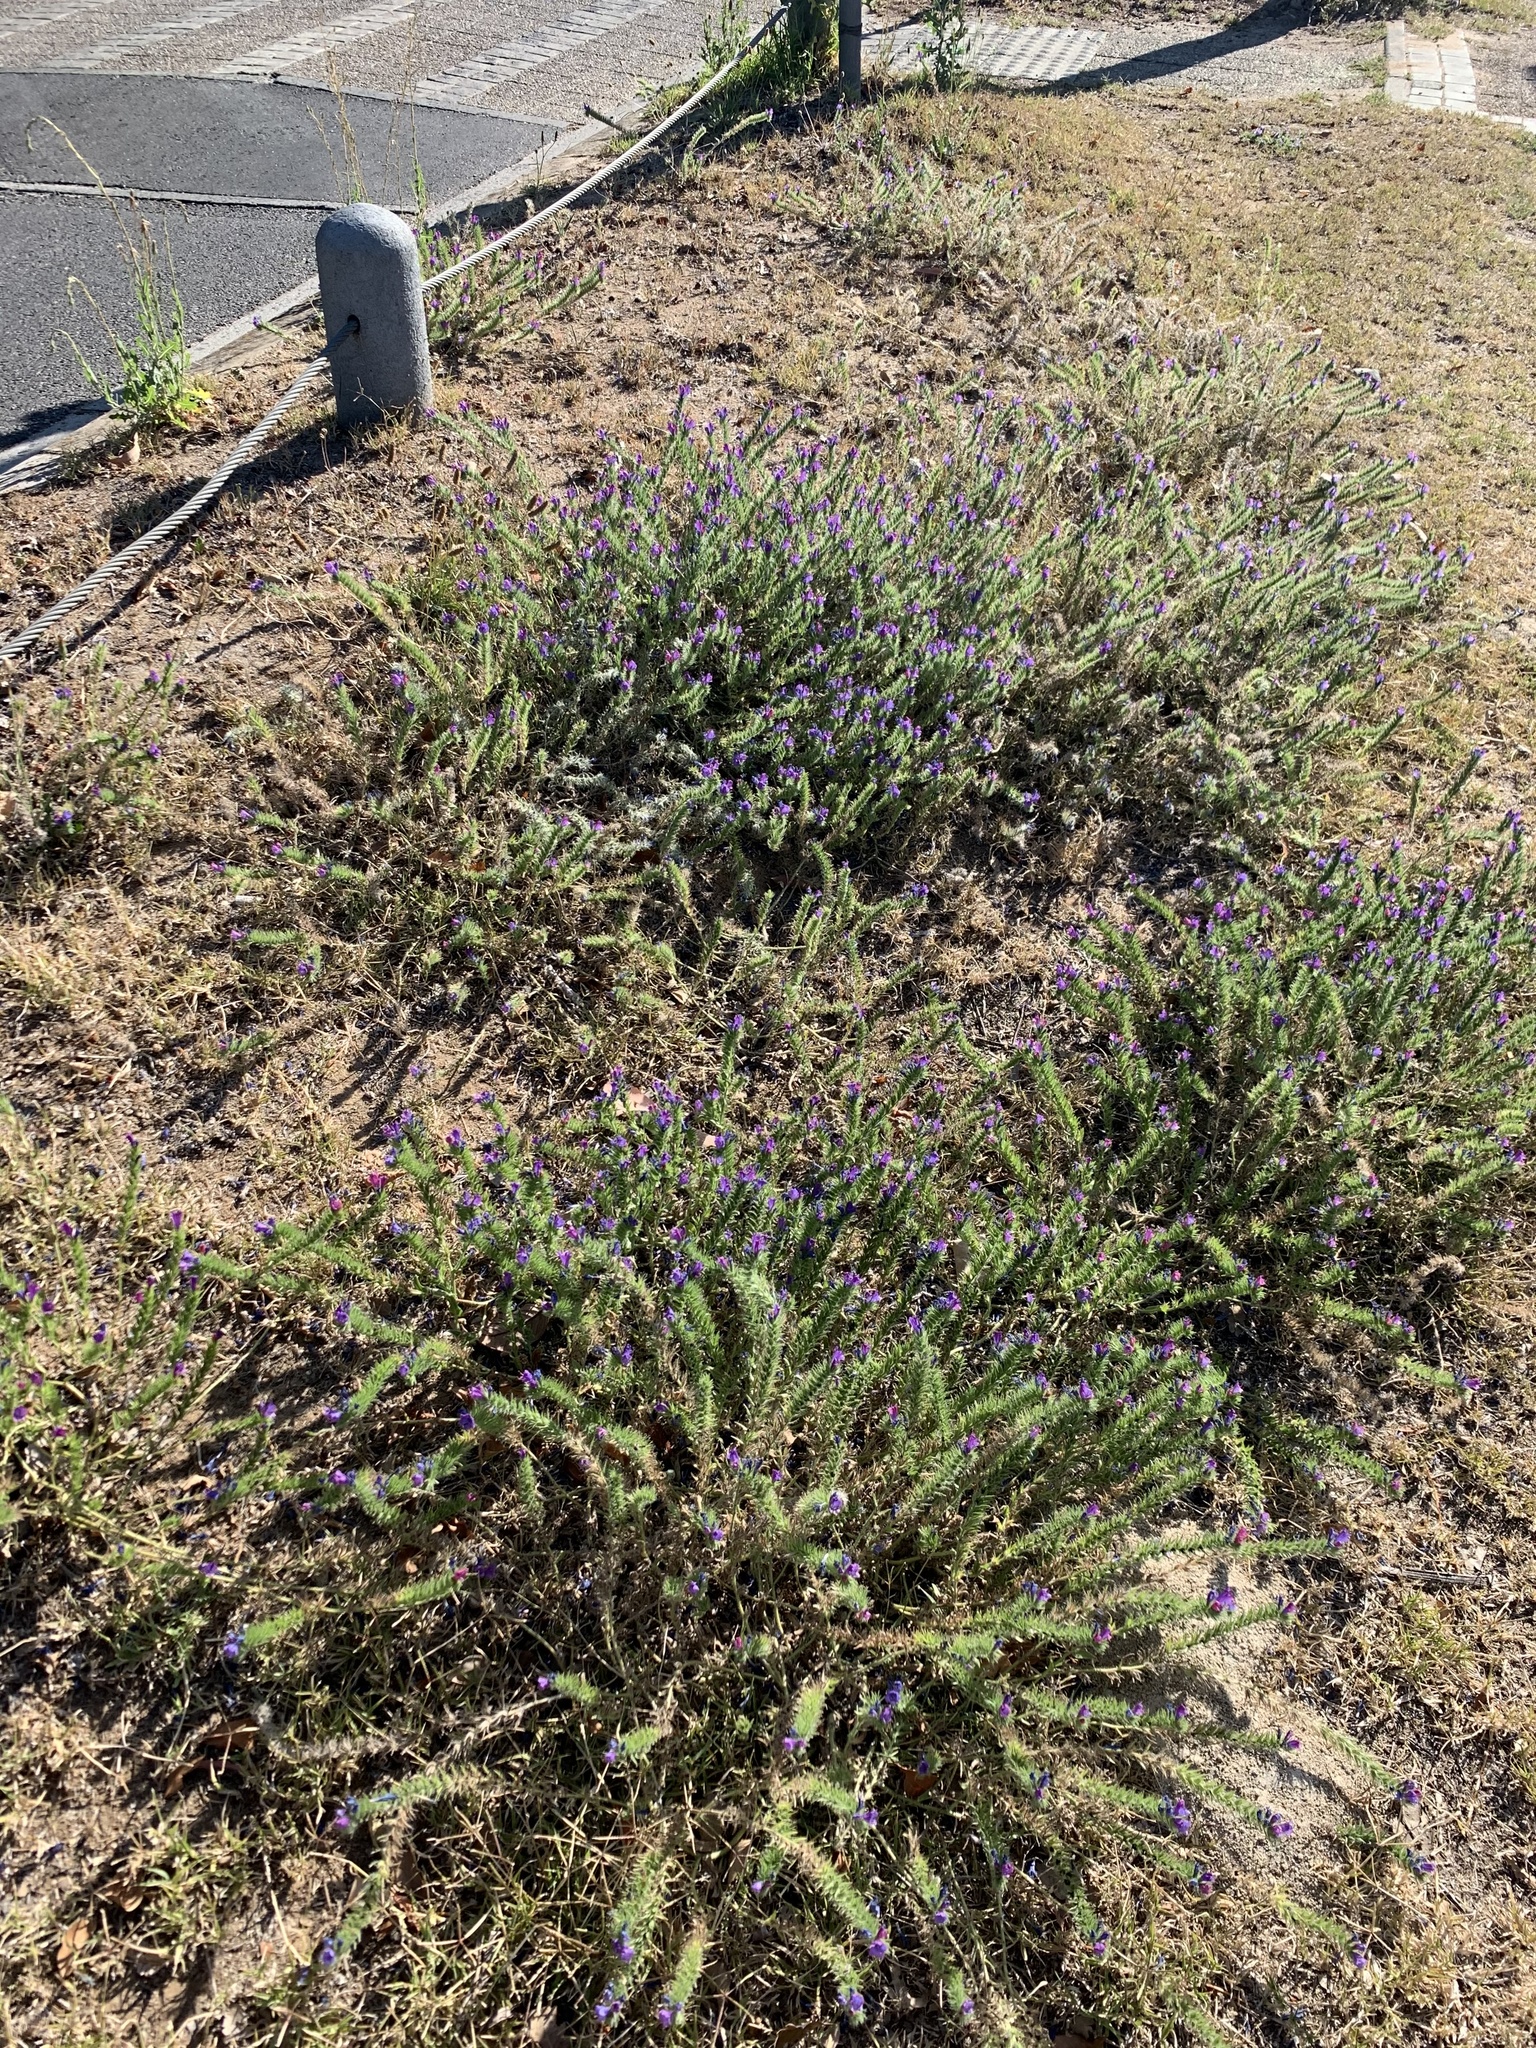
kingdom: Plantae
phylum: Tracheophyta
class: Magnoliopsida
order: Boraginales
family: Boraginaceae
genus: Echium
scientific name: Echium plantagineum
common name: Purple viper's-bugloss
